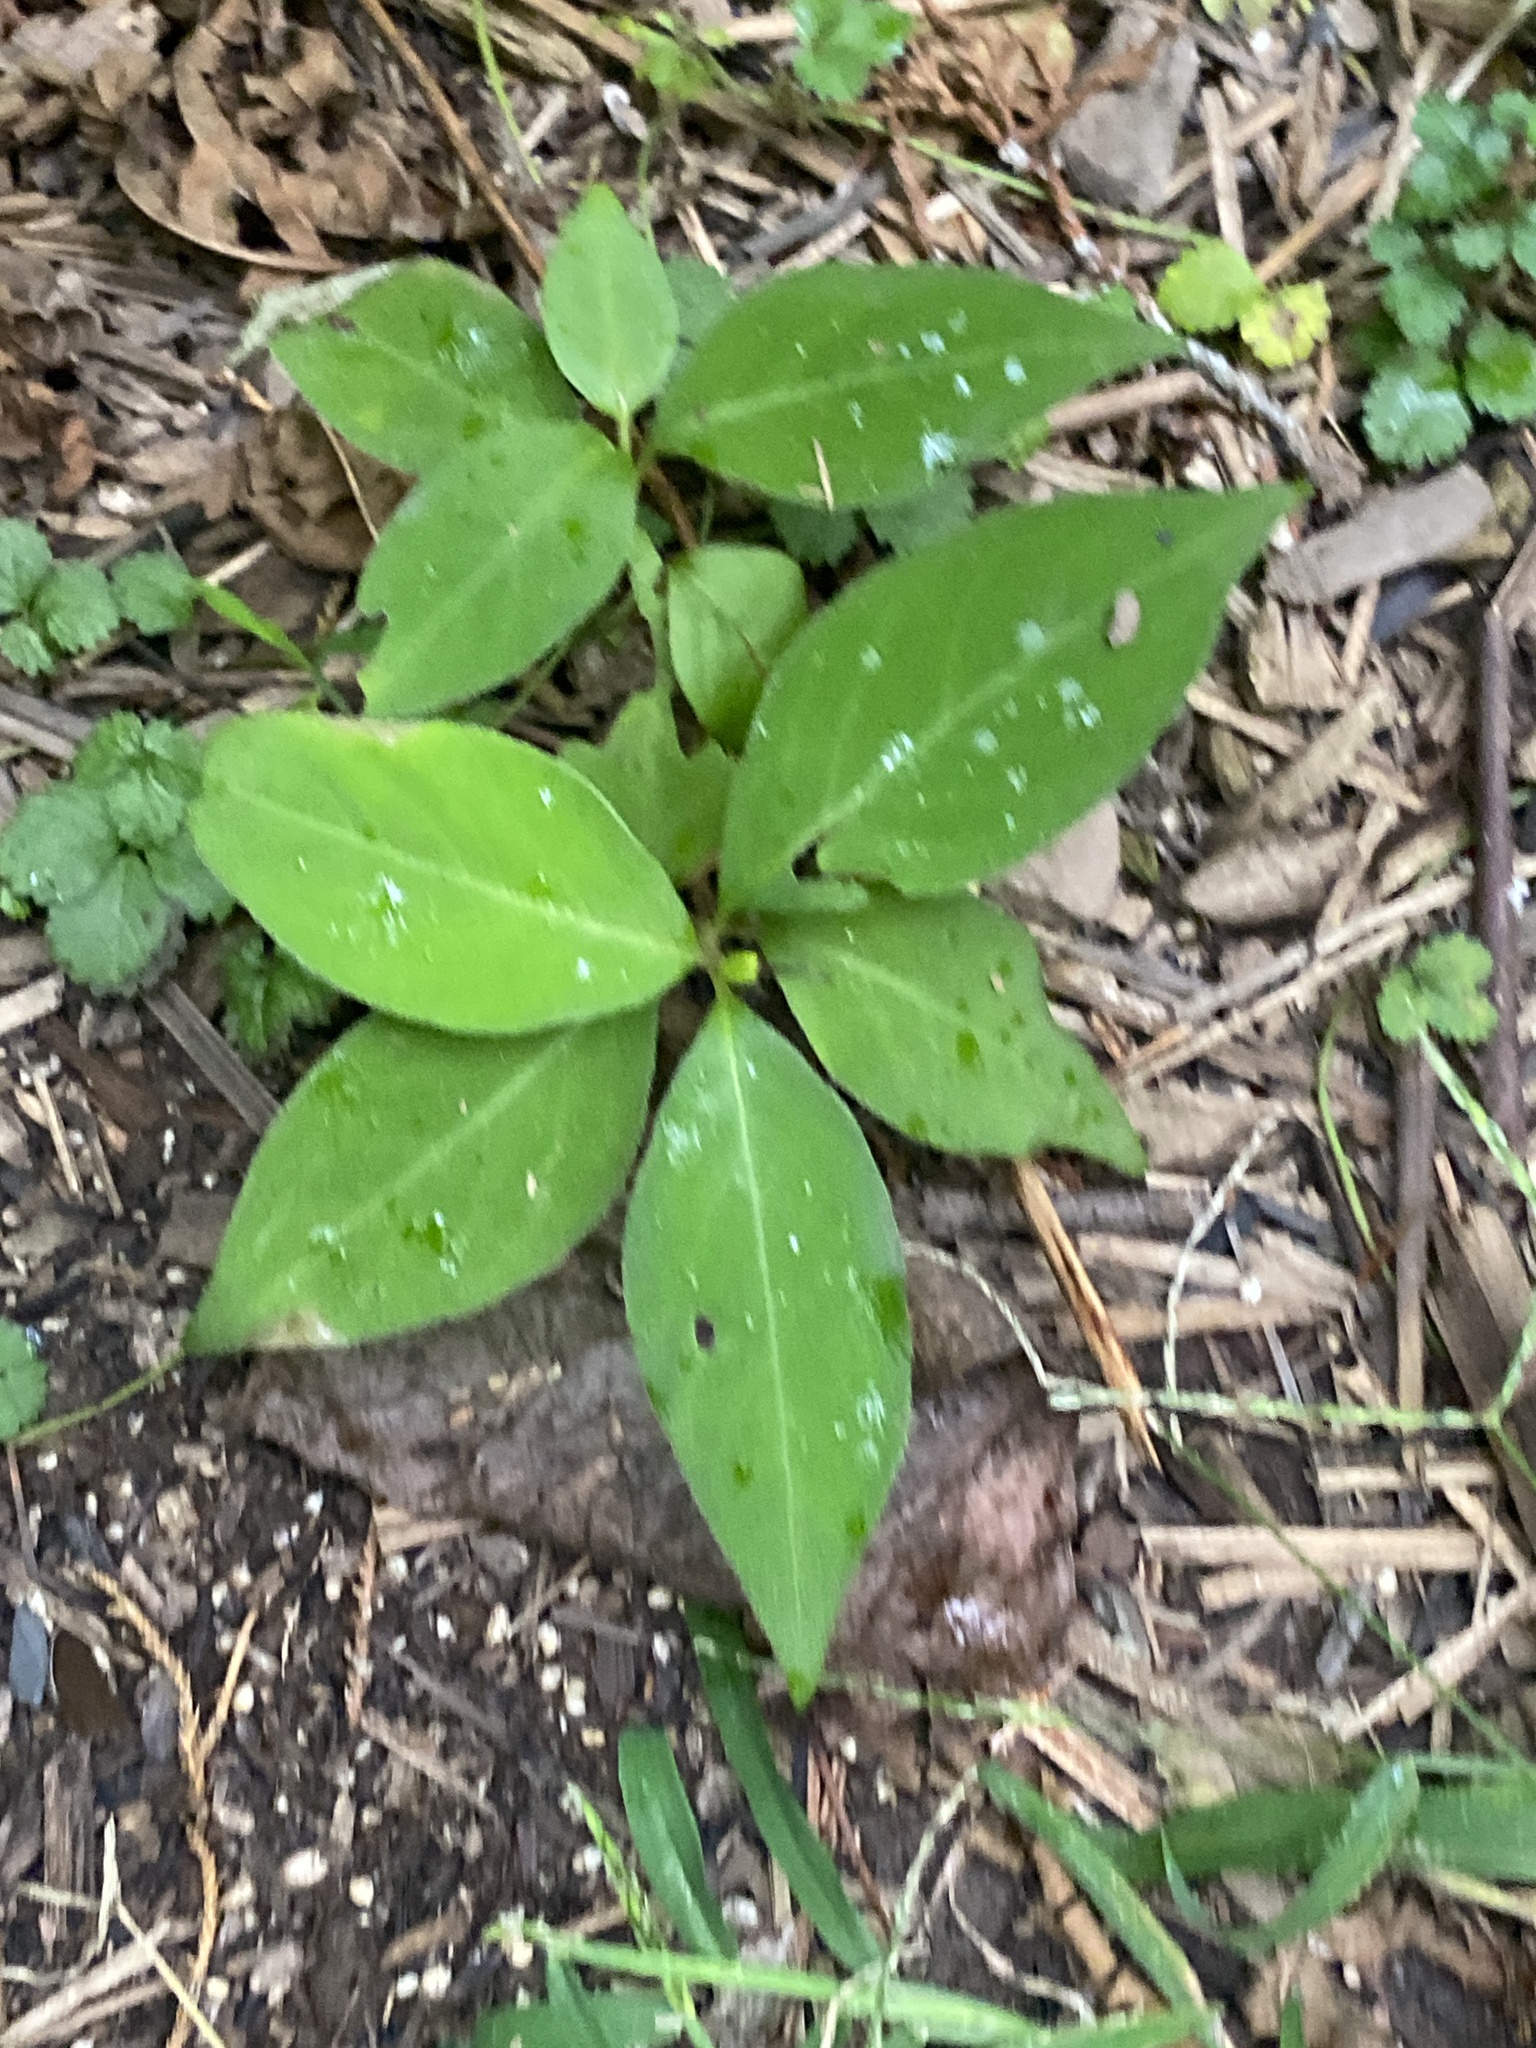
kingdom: Plantae
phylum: Tracheophyta
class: Magnoliopsida
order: Caryophyllales
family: Polygonaceae
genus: Persicaria
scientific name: Persicaria virginiana
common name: Jumpseed
